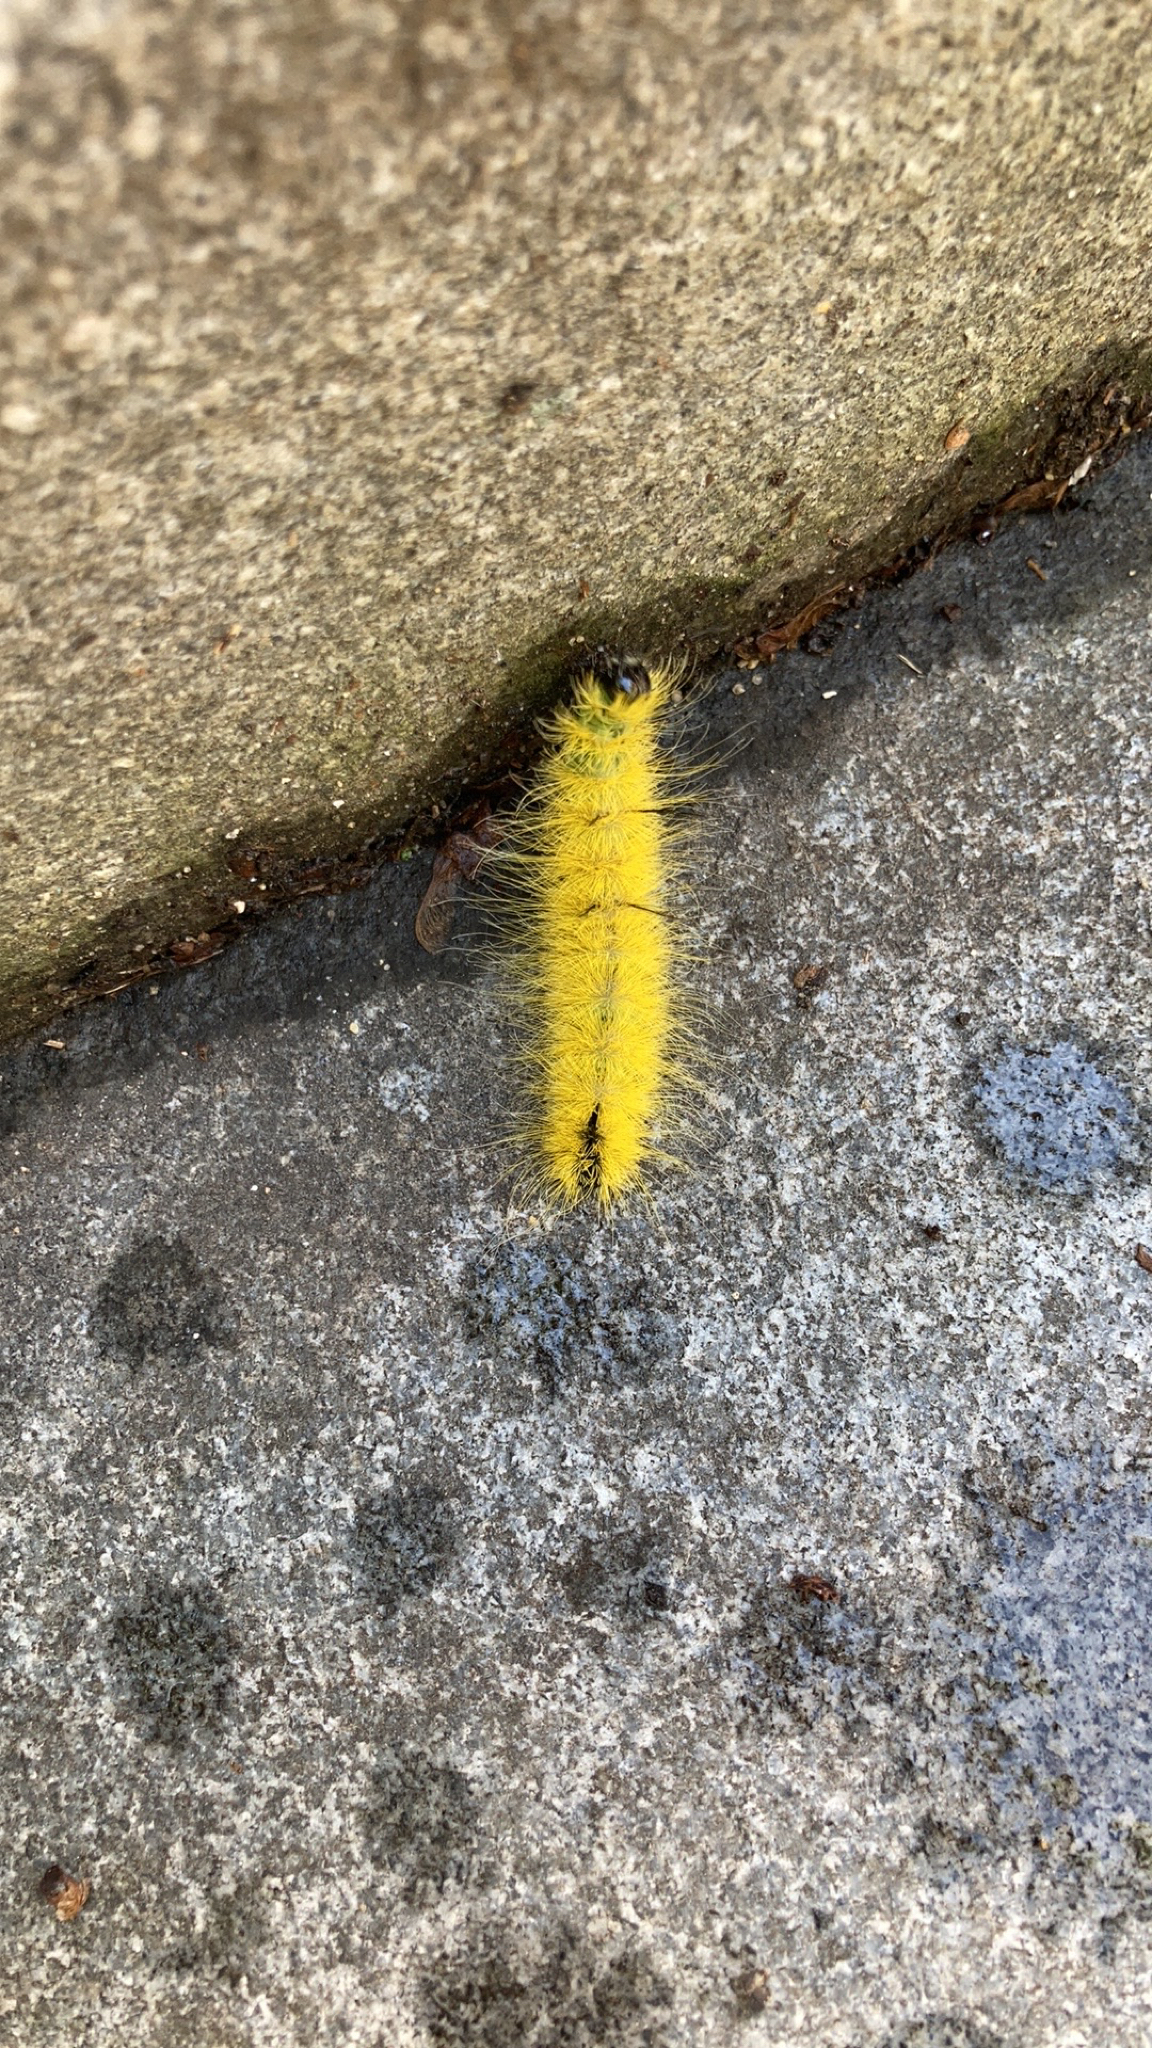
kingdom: Animalia
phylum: Arthropoda
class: Insecta
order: Lepidoptera
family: Noctuidae
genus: Acronicta
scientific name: Acronicta americana
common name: American dagger
